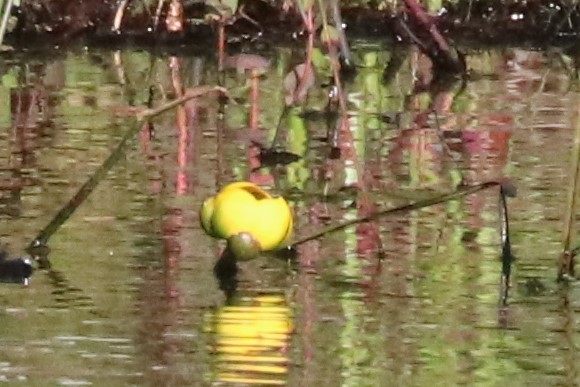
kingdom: Plantae
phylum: Tracheophyta
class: Magnoliopsida
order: Nymphaeales
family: Nymphaeaceae
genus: Nuphar
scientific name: Nuphar variegata
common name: Beaver-root
